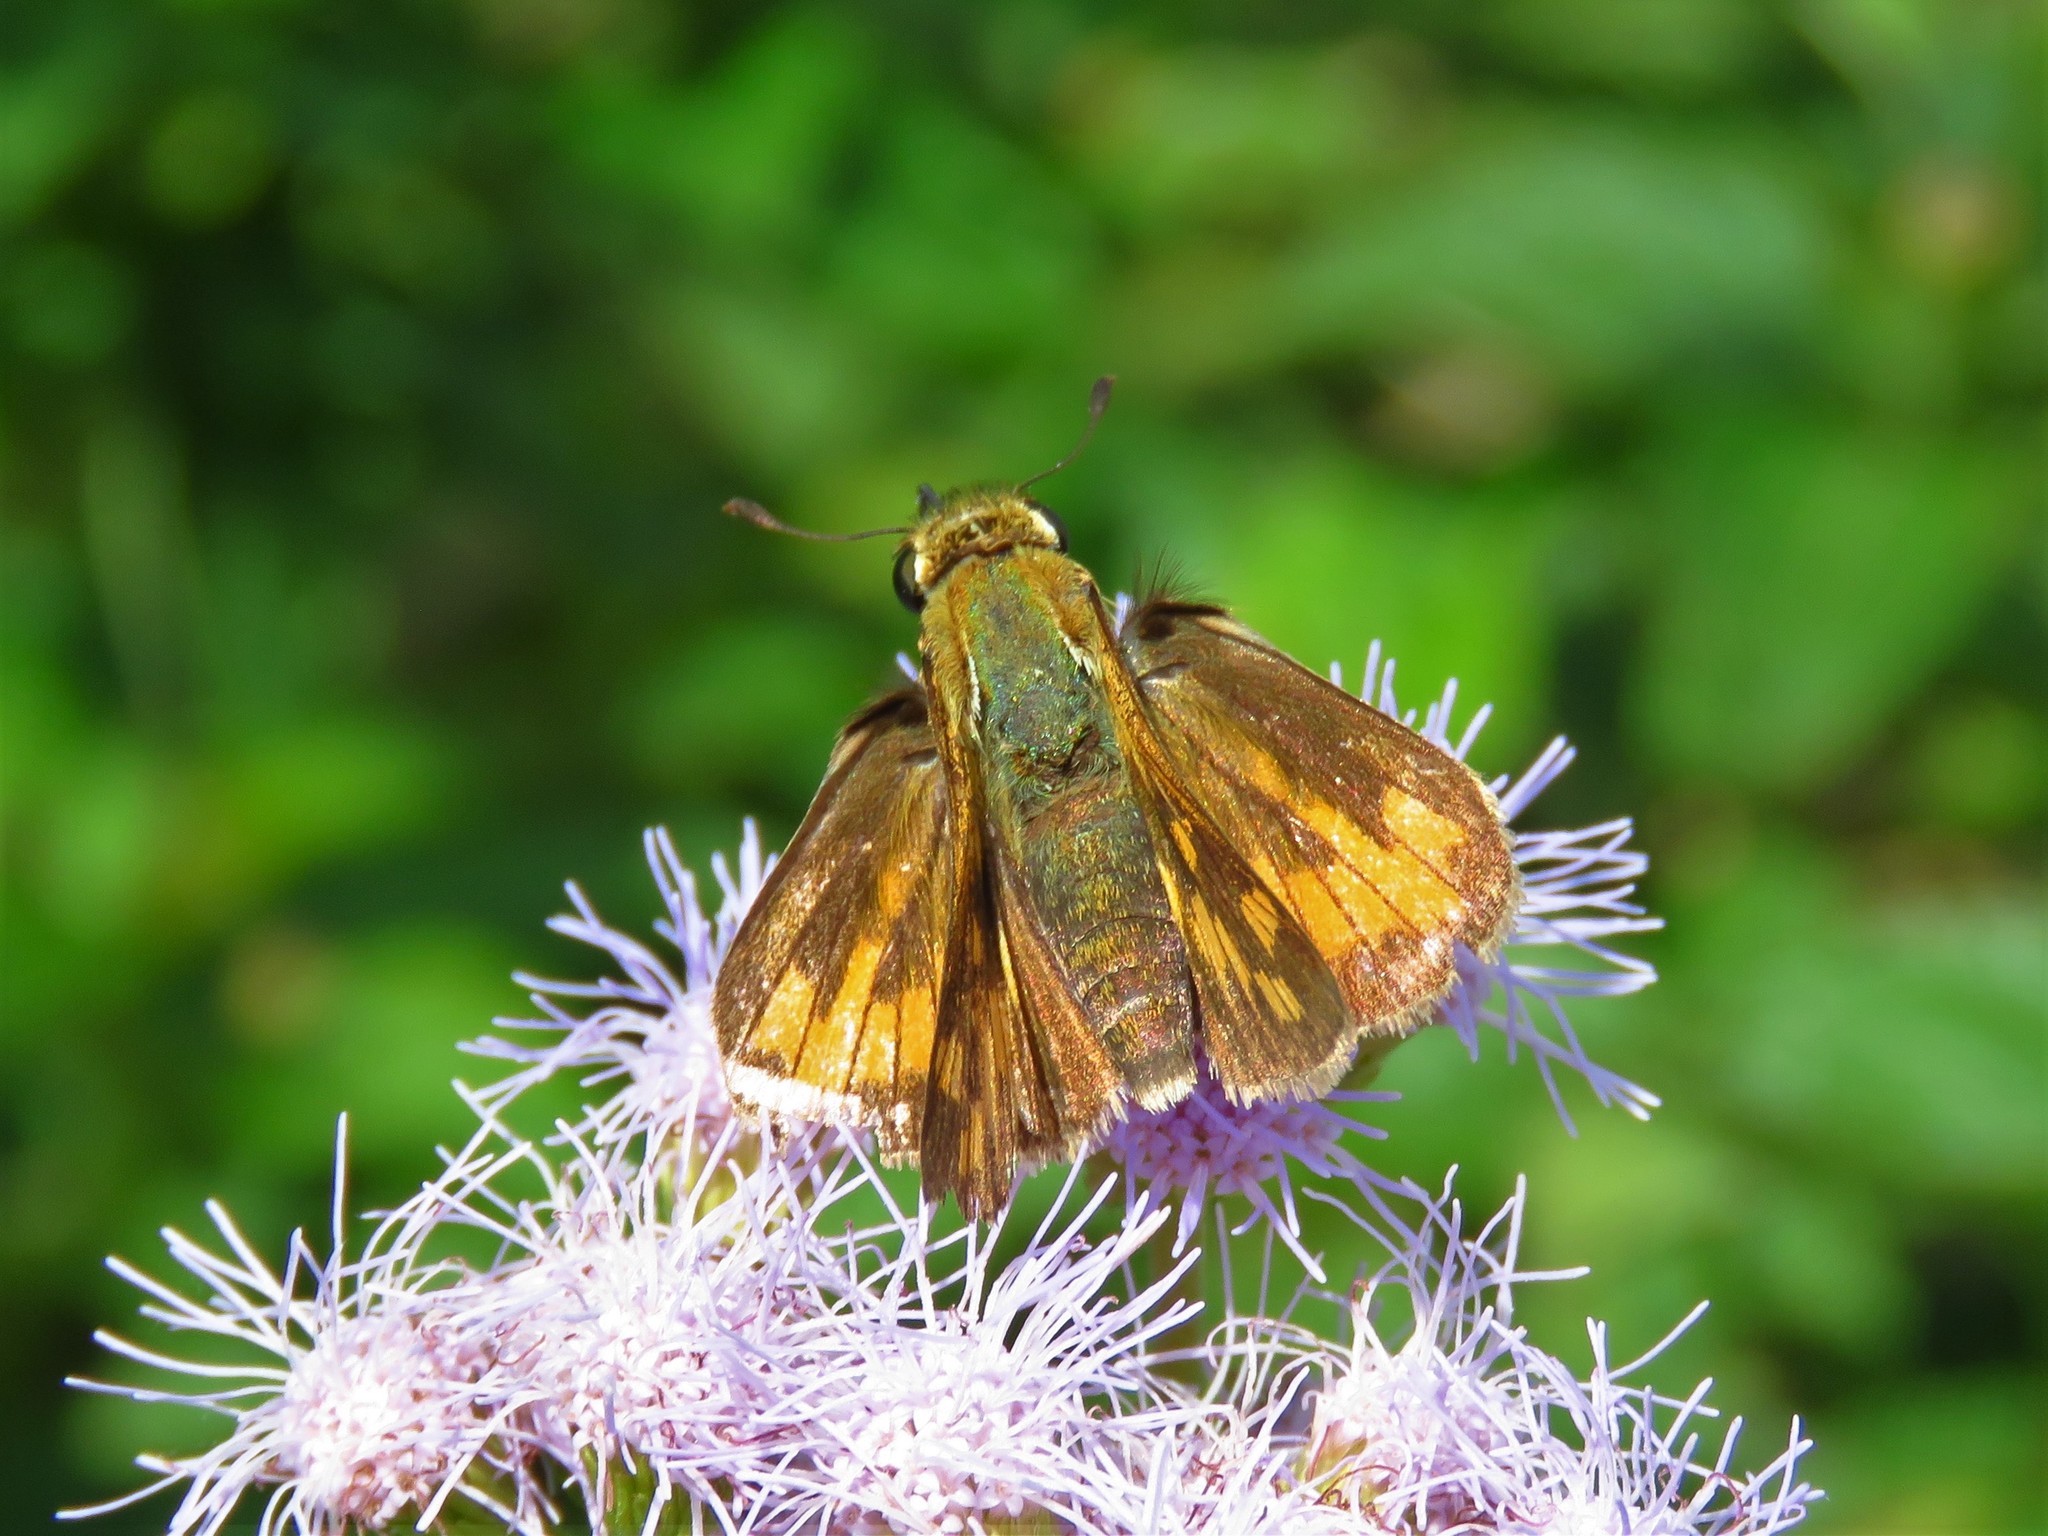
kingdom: Animalia
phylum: Arthropoda
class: Insecta
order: Lepidoptera
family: Hesperiidae
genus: Hylephila
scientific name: Hylephila phyleus
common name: Fiery skipper
